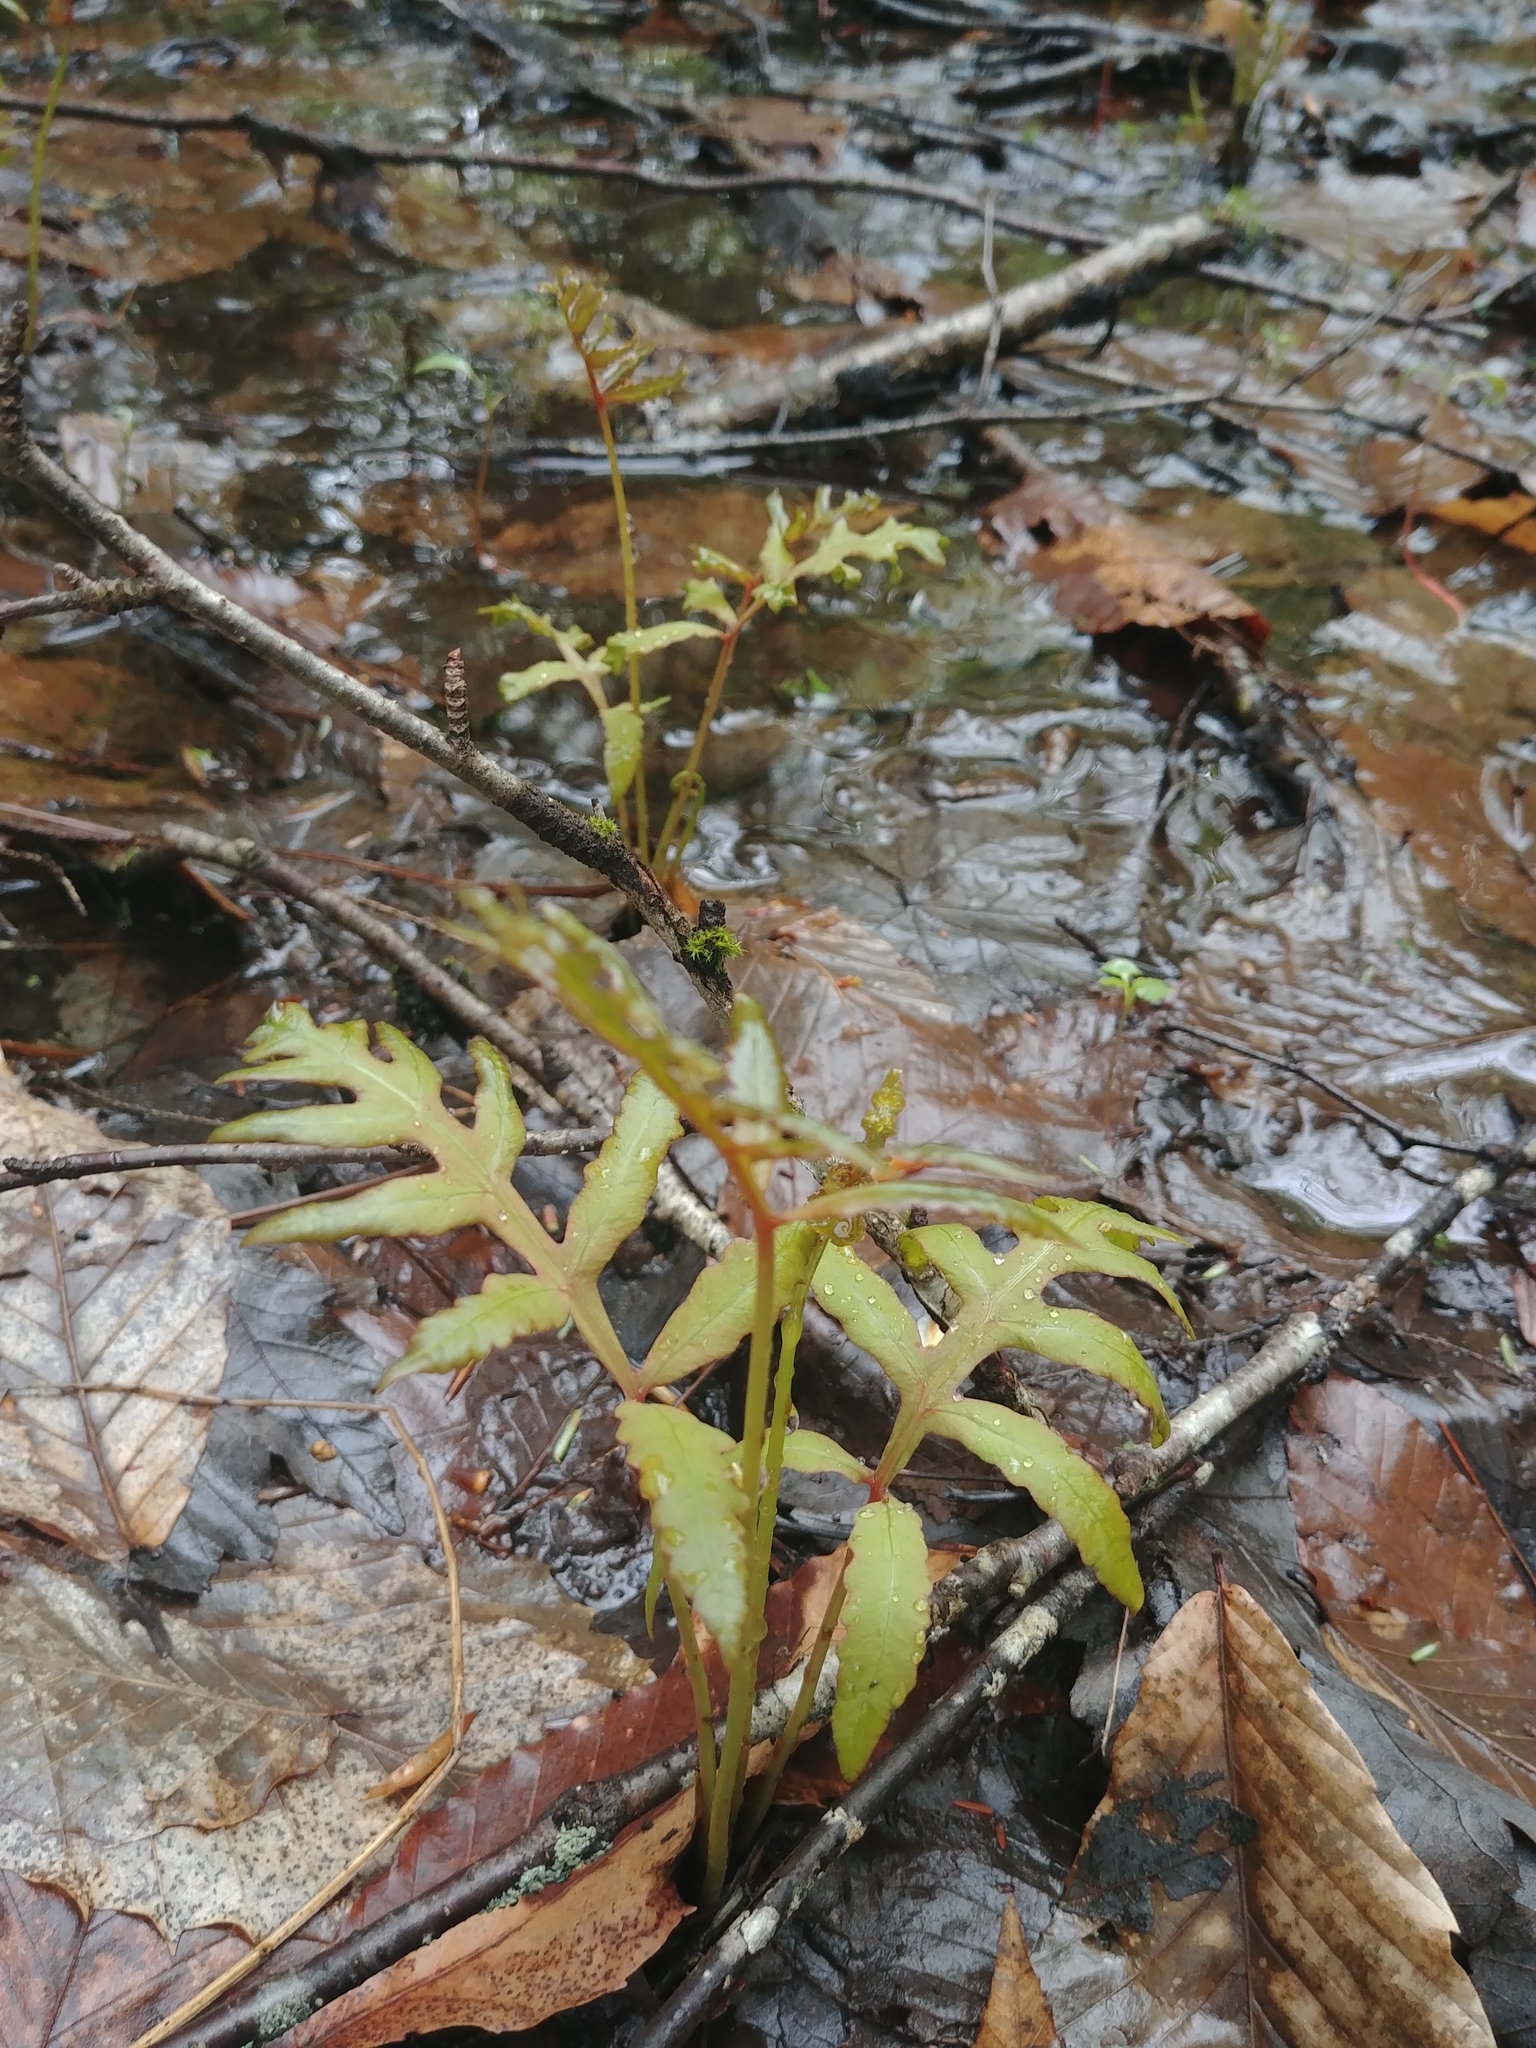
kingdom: Plantae
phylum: Tracheophyta
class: Polypodiopsida
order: Polypodiales
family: Onocleaceae
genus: Onoclea
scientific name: Onoclea sensibilis
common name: Sensitive fern
